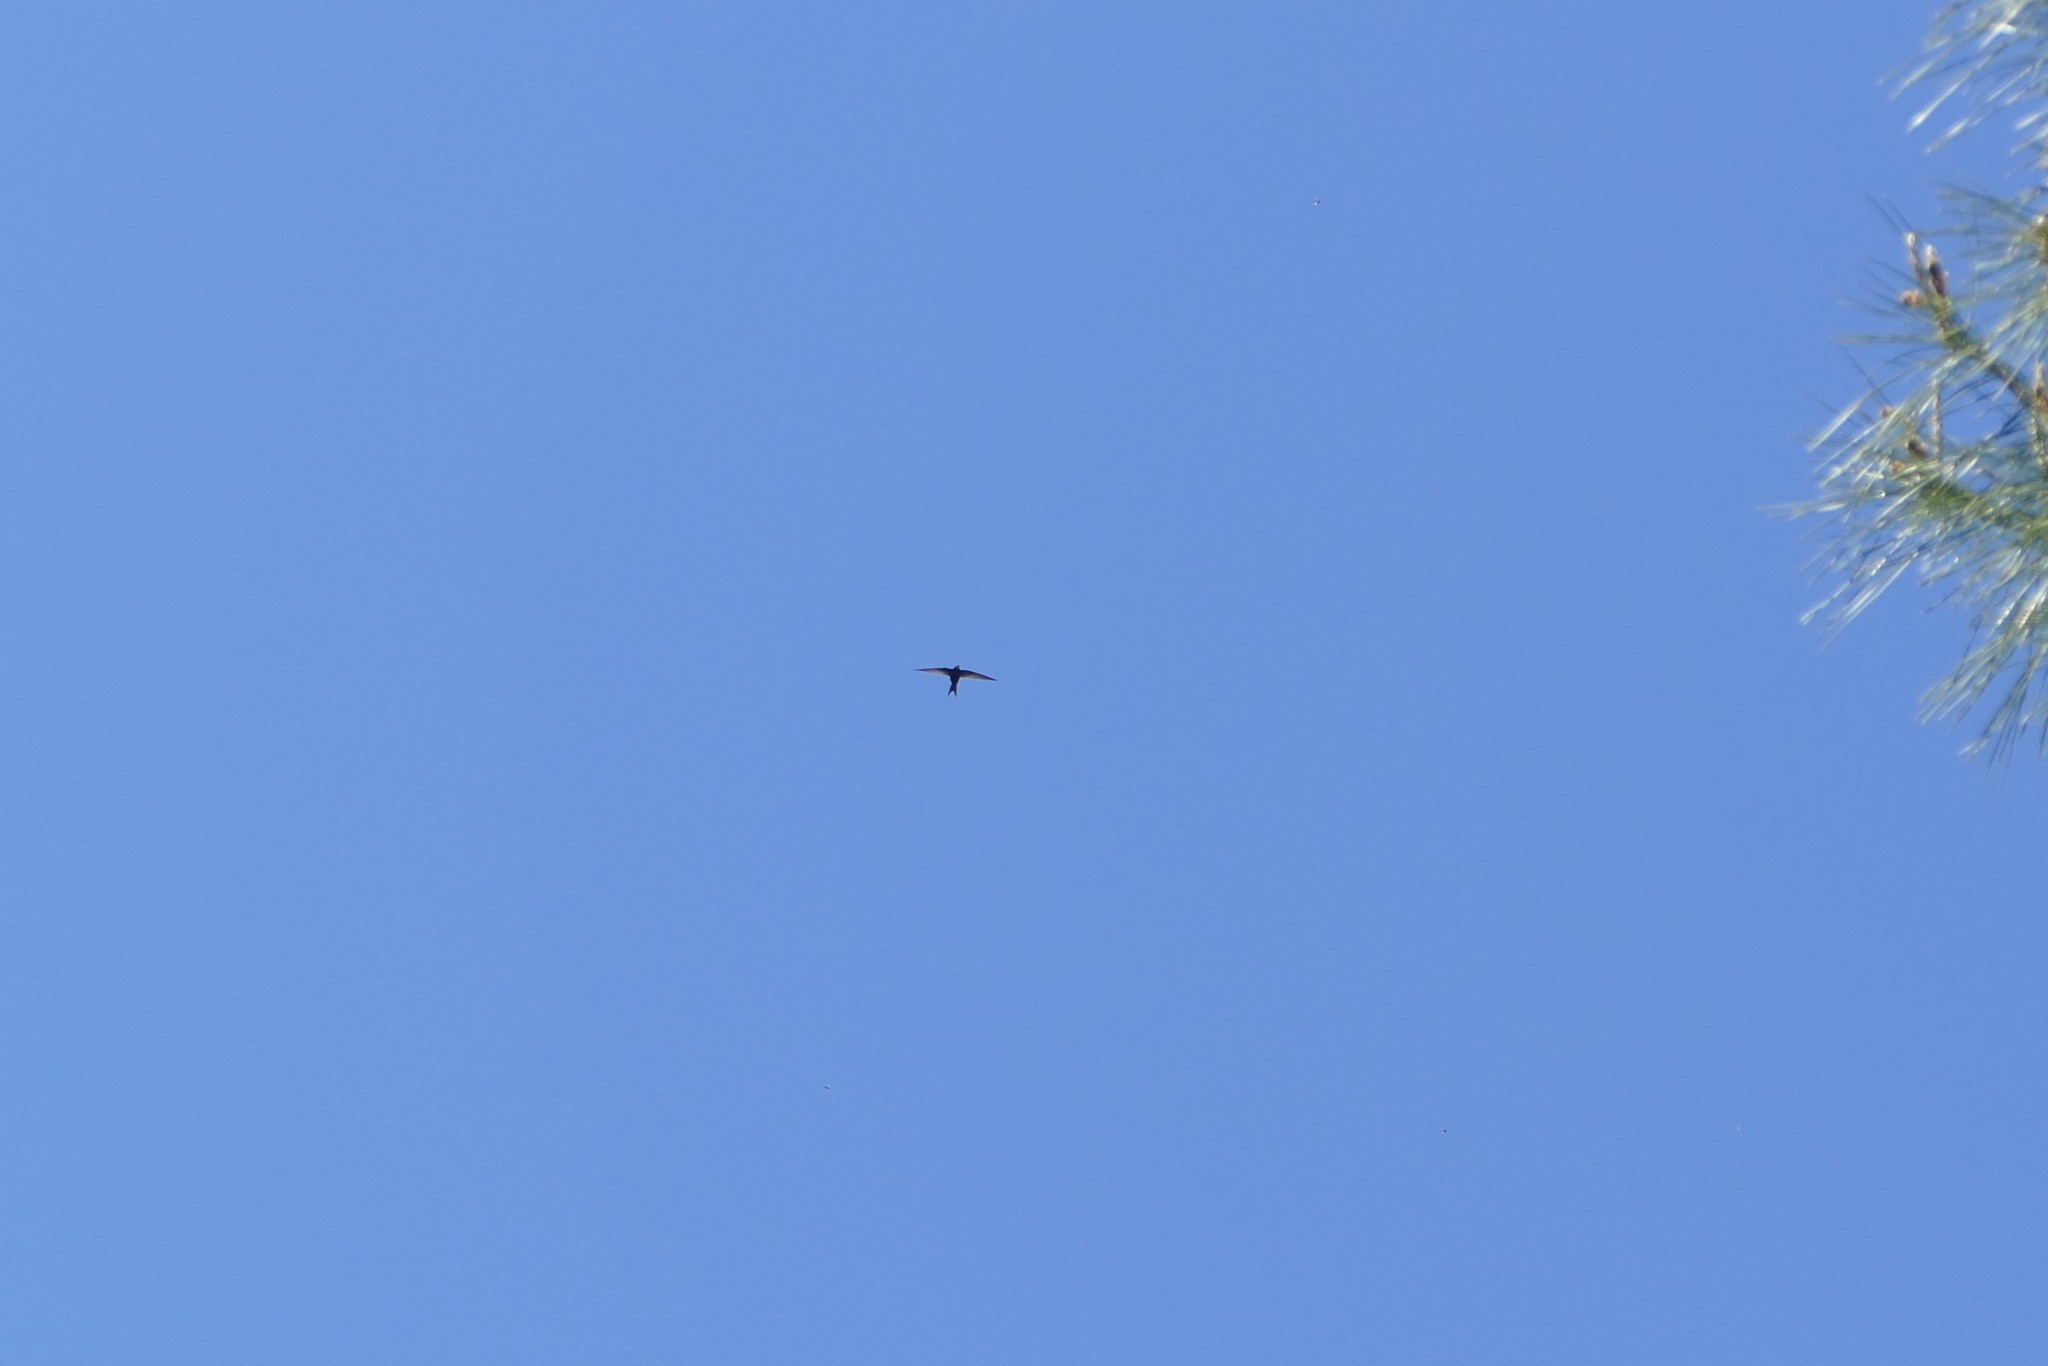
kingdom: Animalia
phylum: Chordata
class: Aves
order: Apodiformes
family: Apodidae
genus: Apus
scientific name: Apus apus
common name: Common swift
